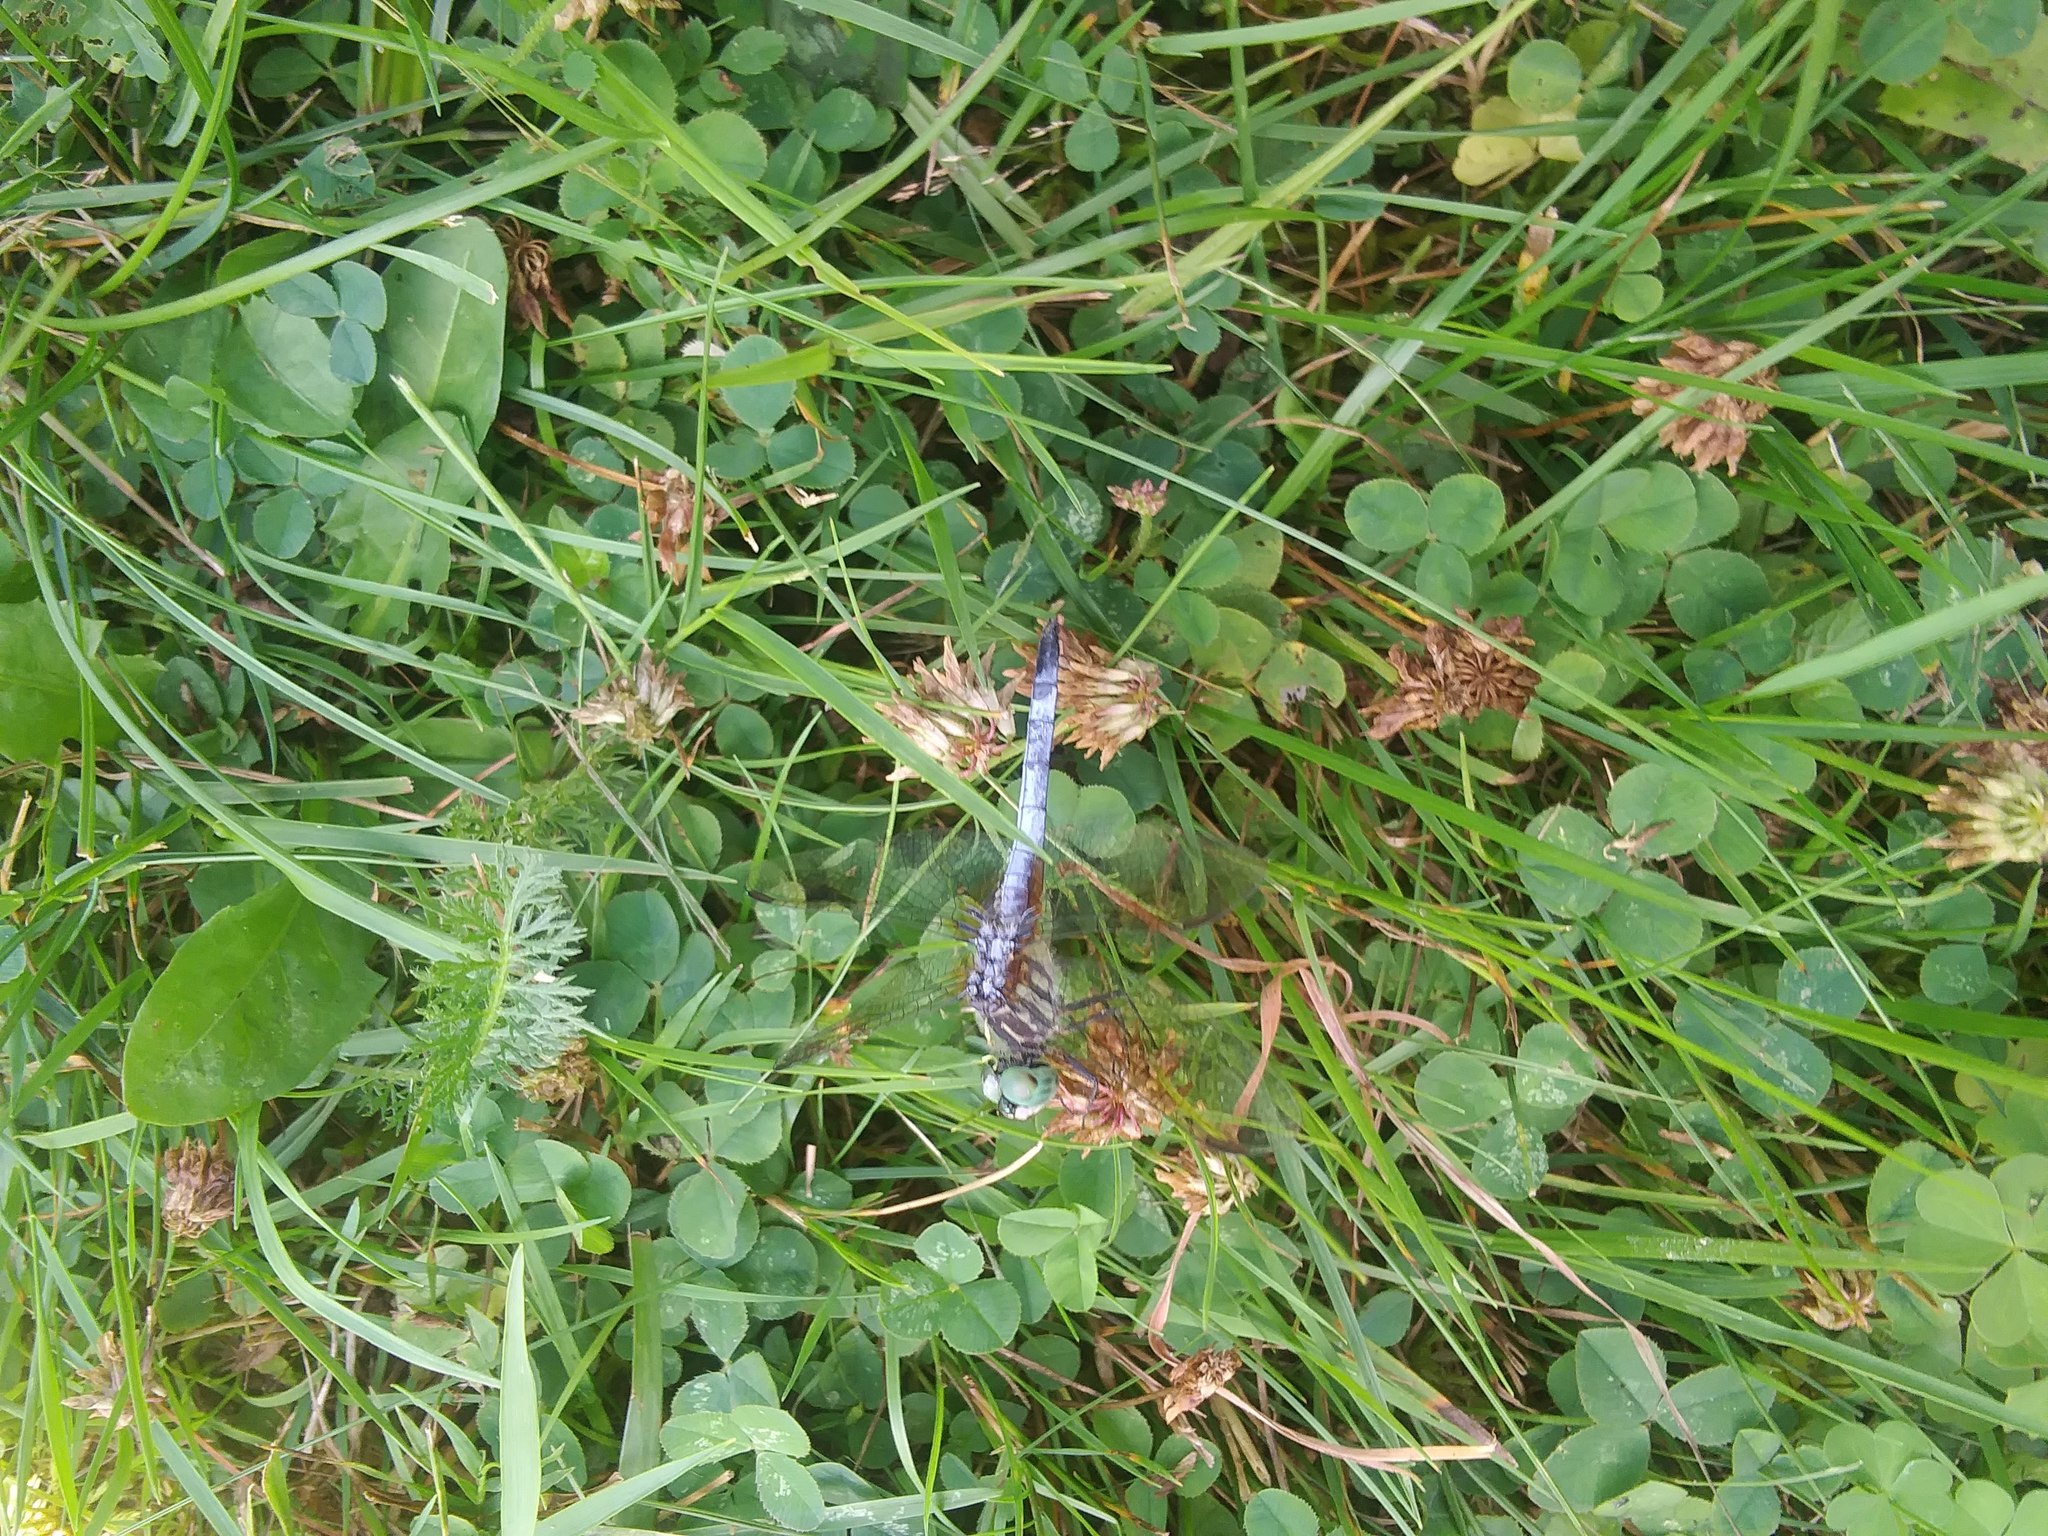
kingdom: Animalia
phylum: Arthropoda
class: Insecta
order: Odonata
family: Libellulidae
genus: Pachydiplax
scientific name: Pachydiplax longipennis
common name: Blue dasher
